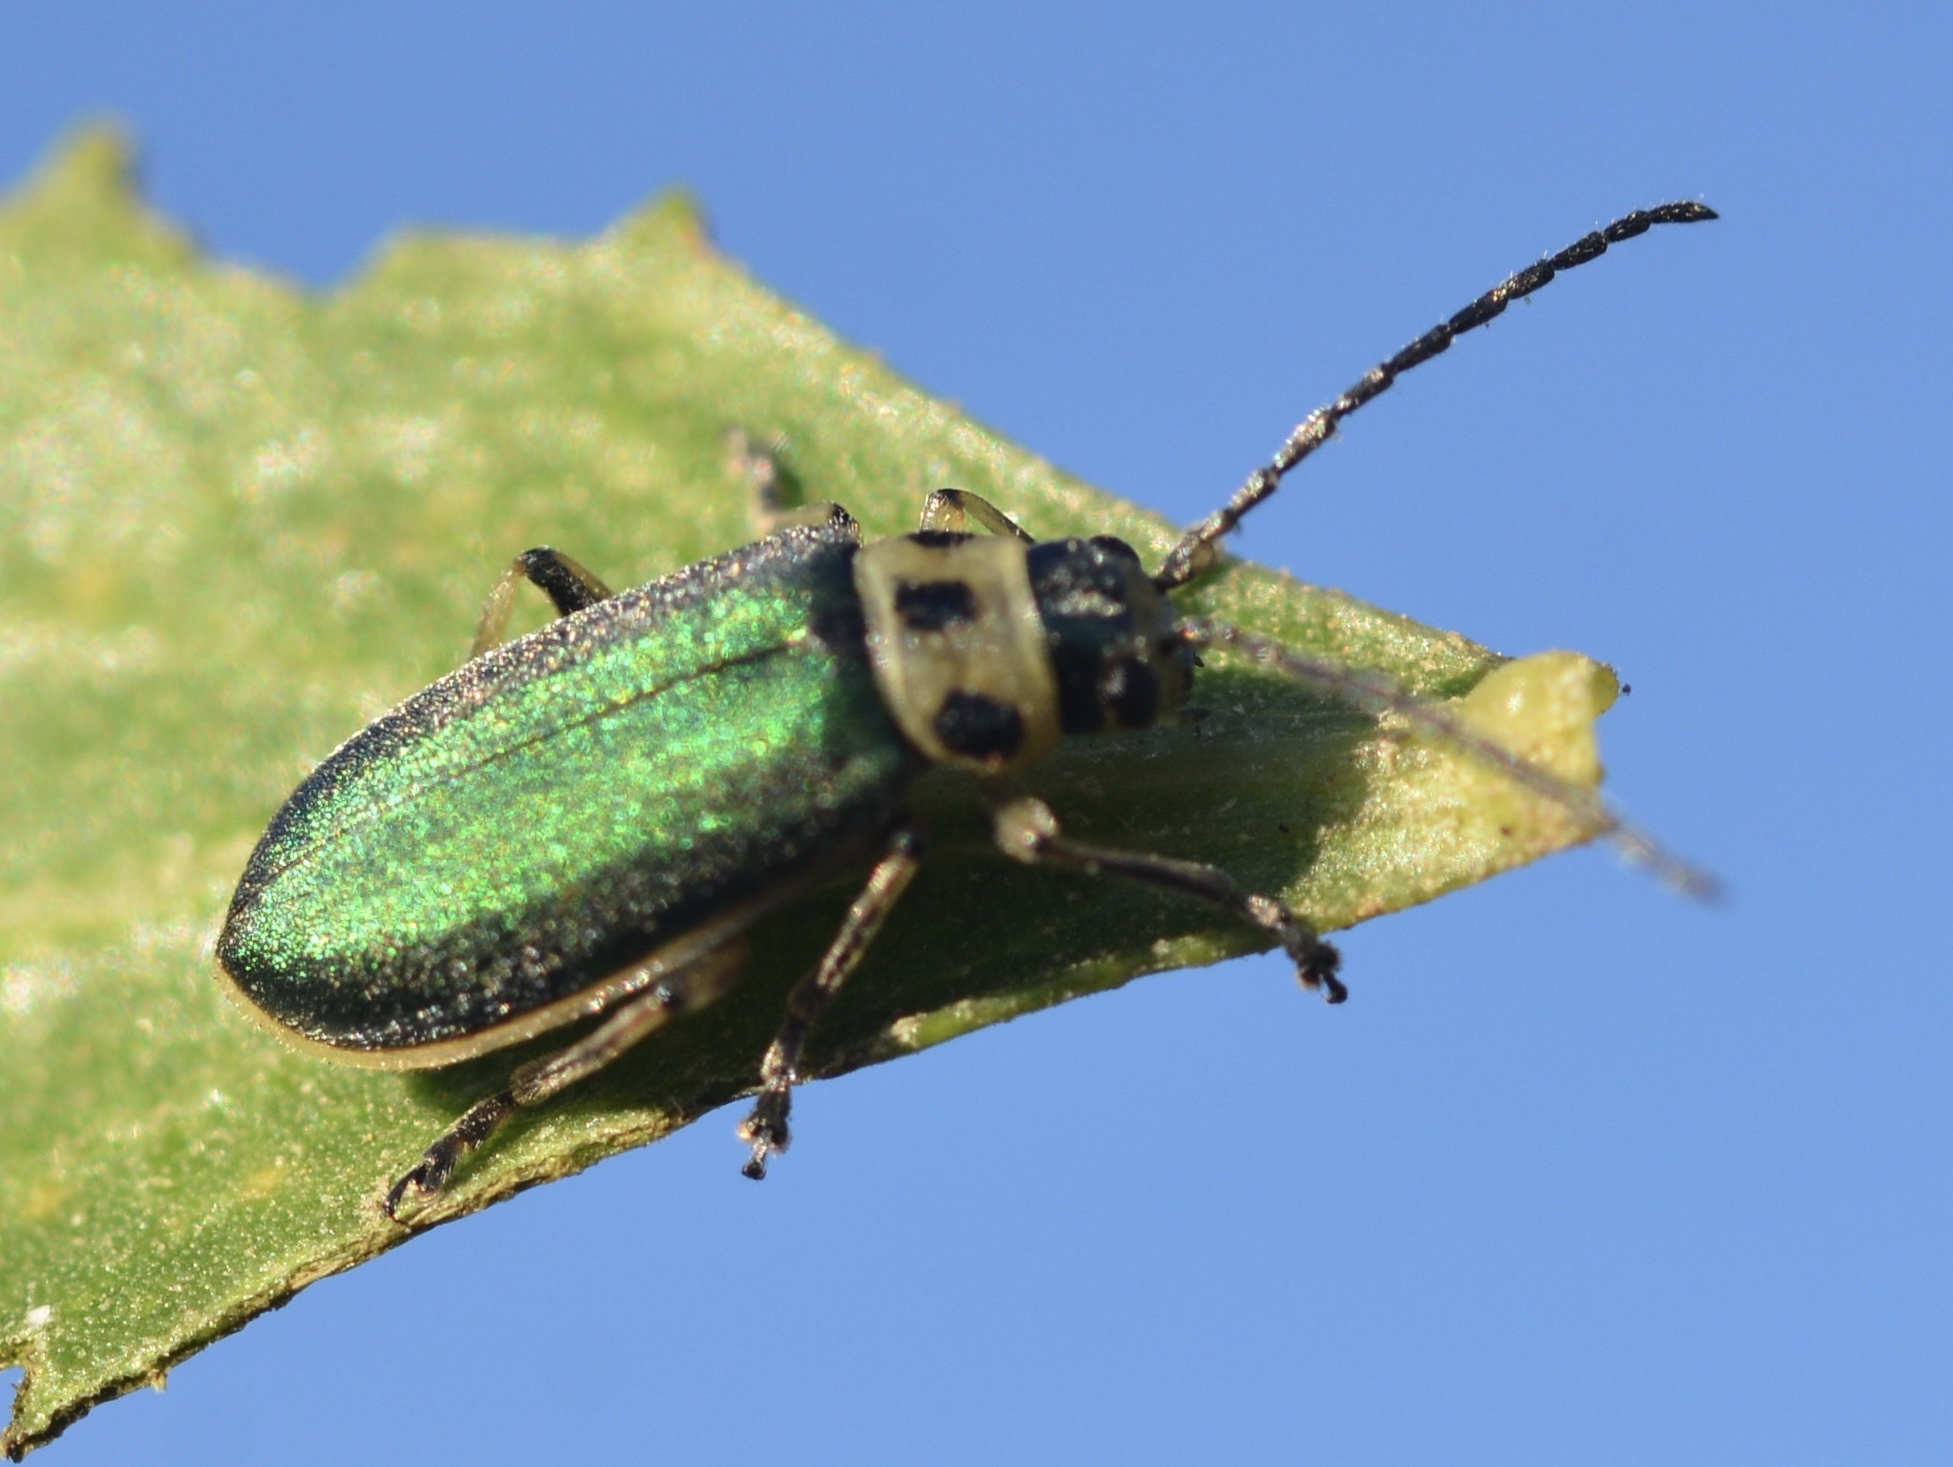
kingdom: Animalia
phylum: Arthropoda
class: Insecta
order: Coleoptera
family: Chrysomelidae
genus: Trirhabda
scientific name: Trirhabda flavolimbata
